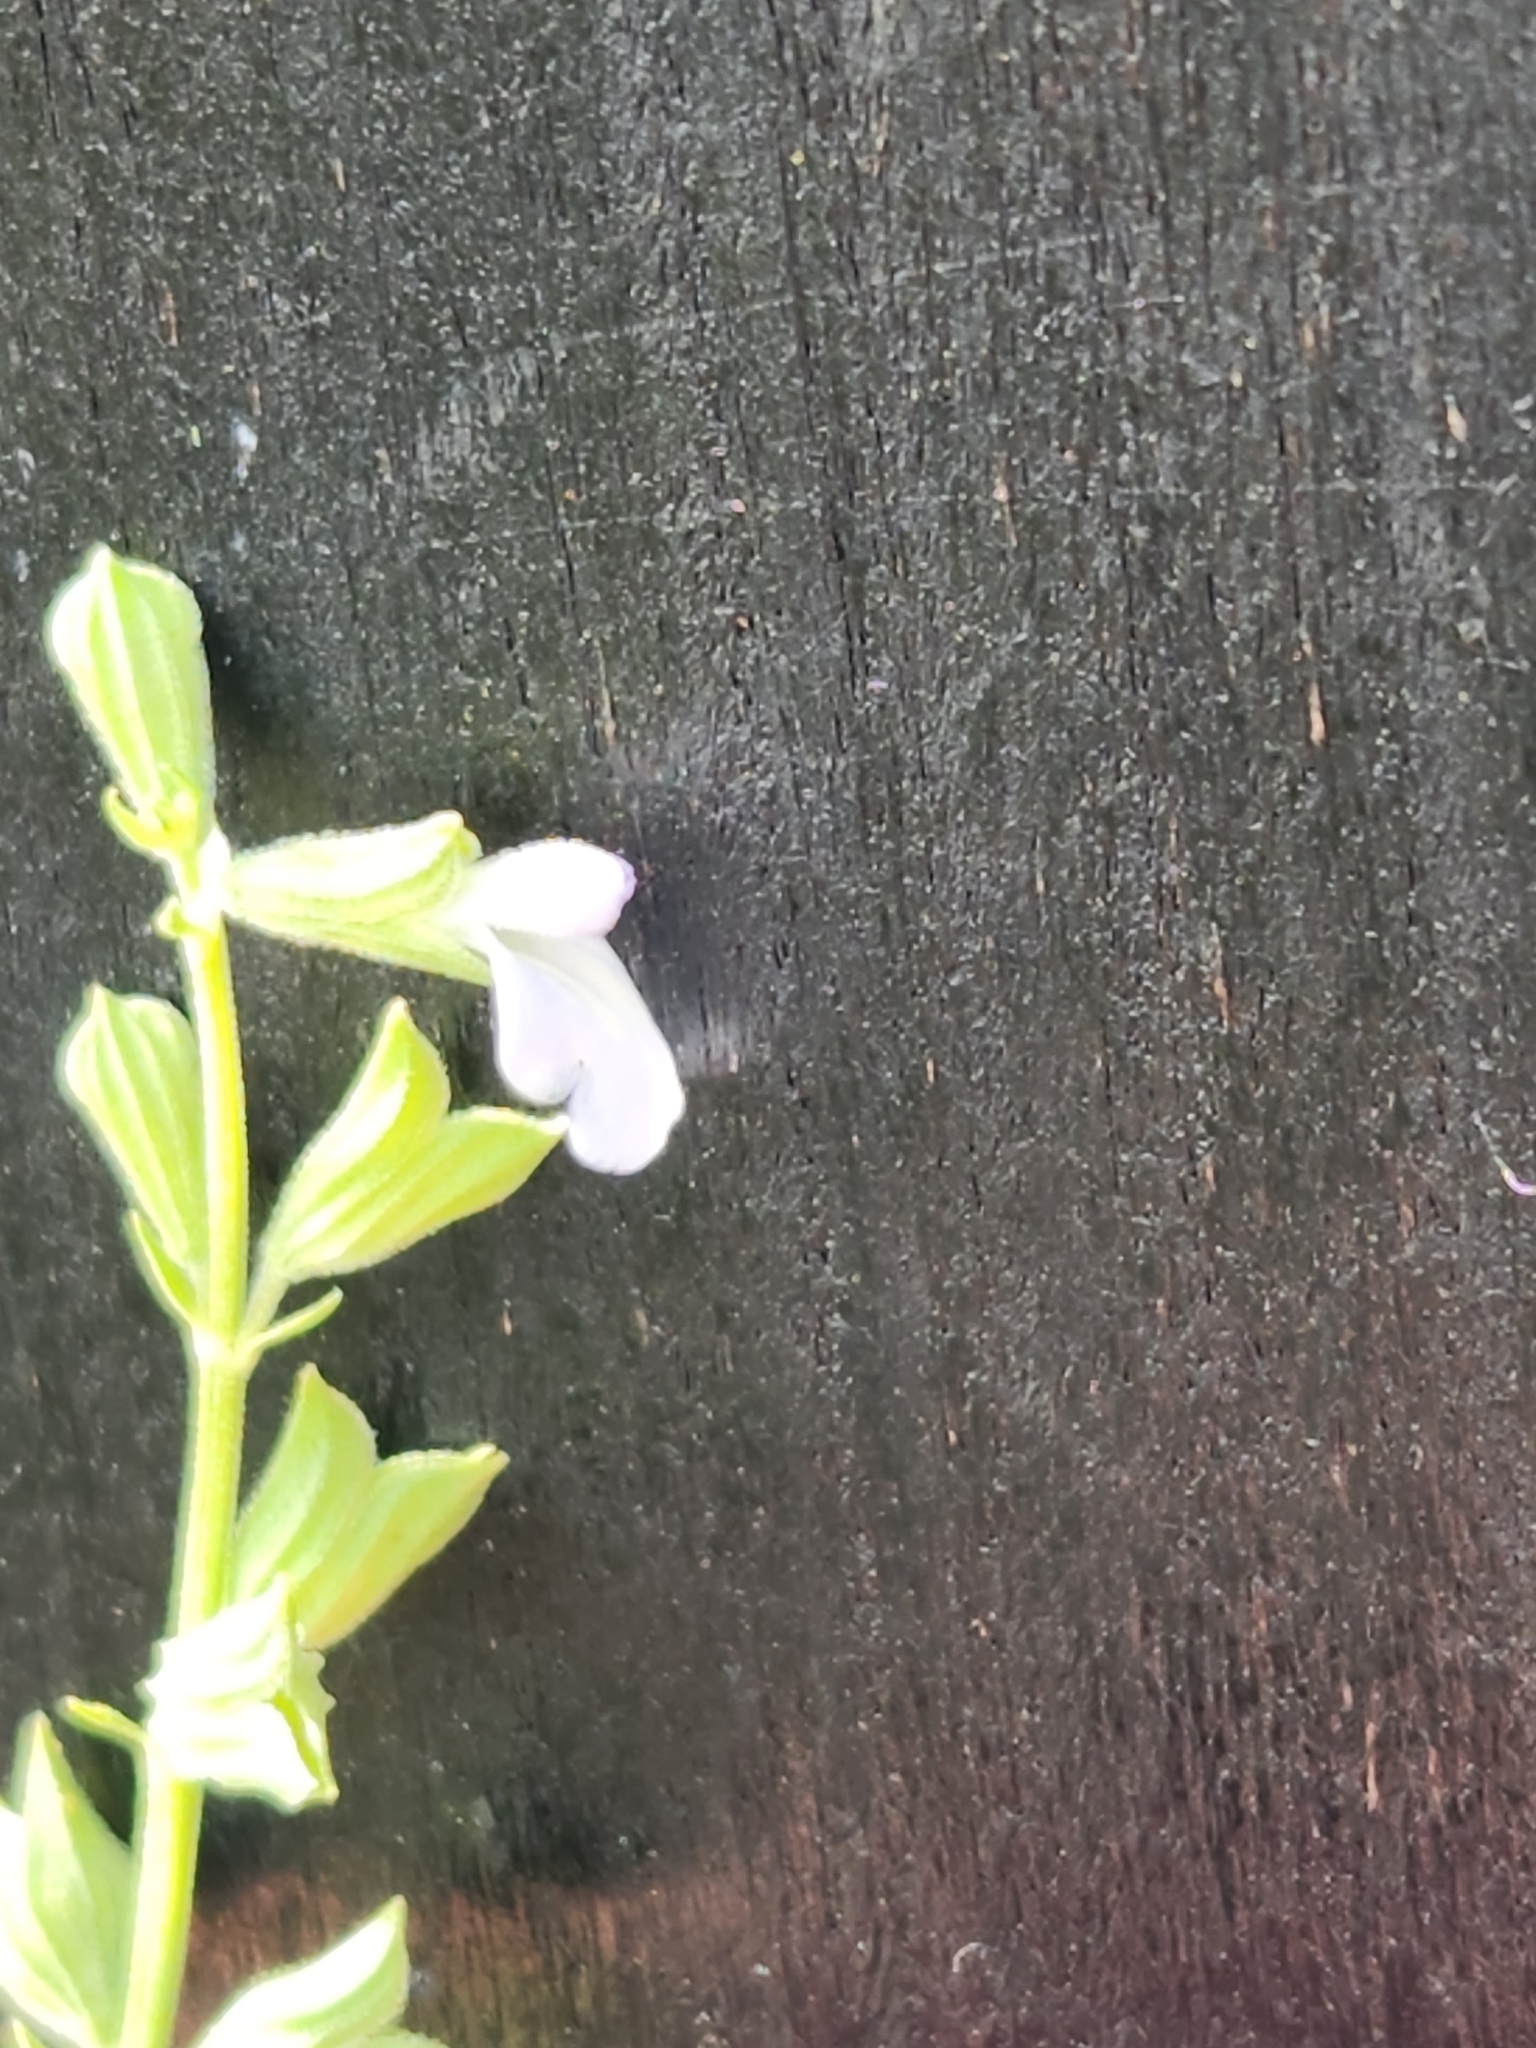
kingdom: Plantae
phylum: Tracheophyta
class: Magnoliopsida
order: Lamiales
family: Lamiaceae
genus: Salvia
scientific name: Salvia reflexa
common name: Mintweed
